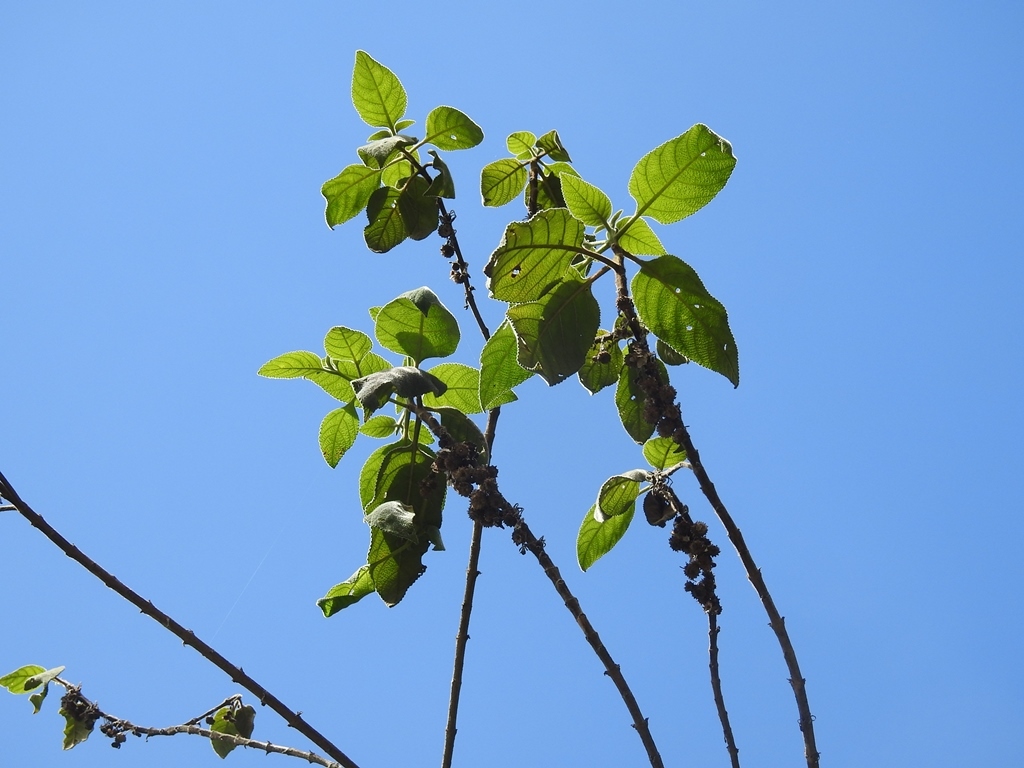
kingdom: Plantae
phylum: Tracheophyta
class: Magnoliopsida
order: Lamiales
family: Verbenaceae
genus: Lippia
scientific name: Lippia umbellata
